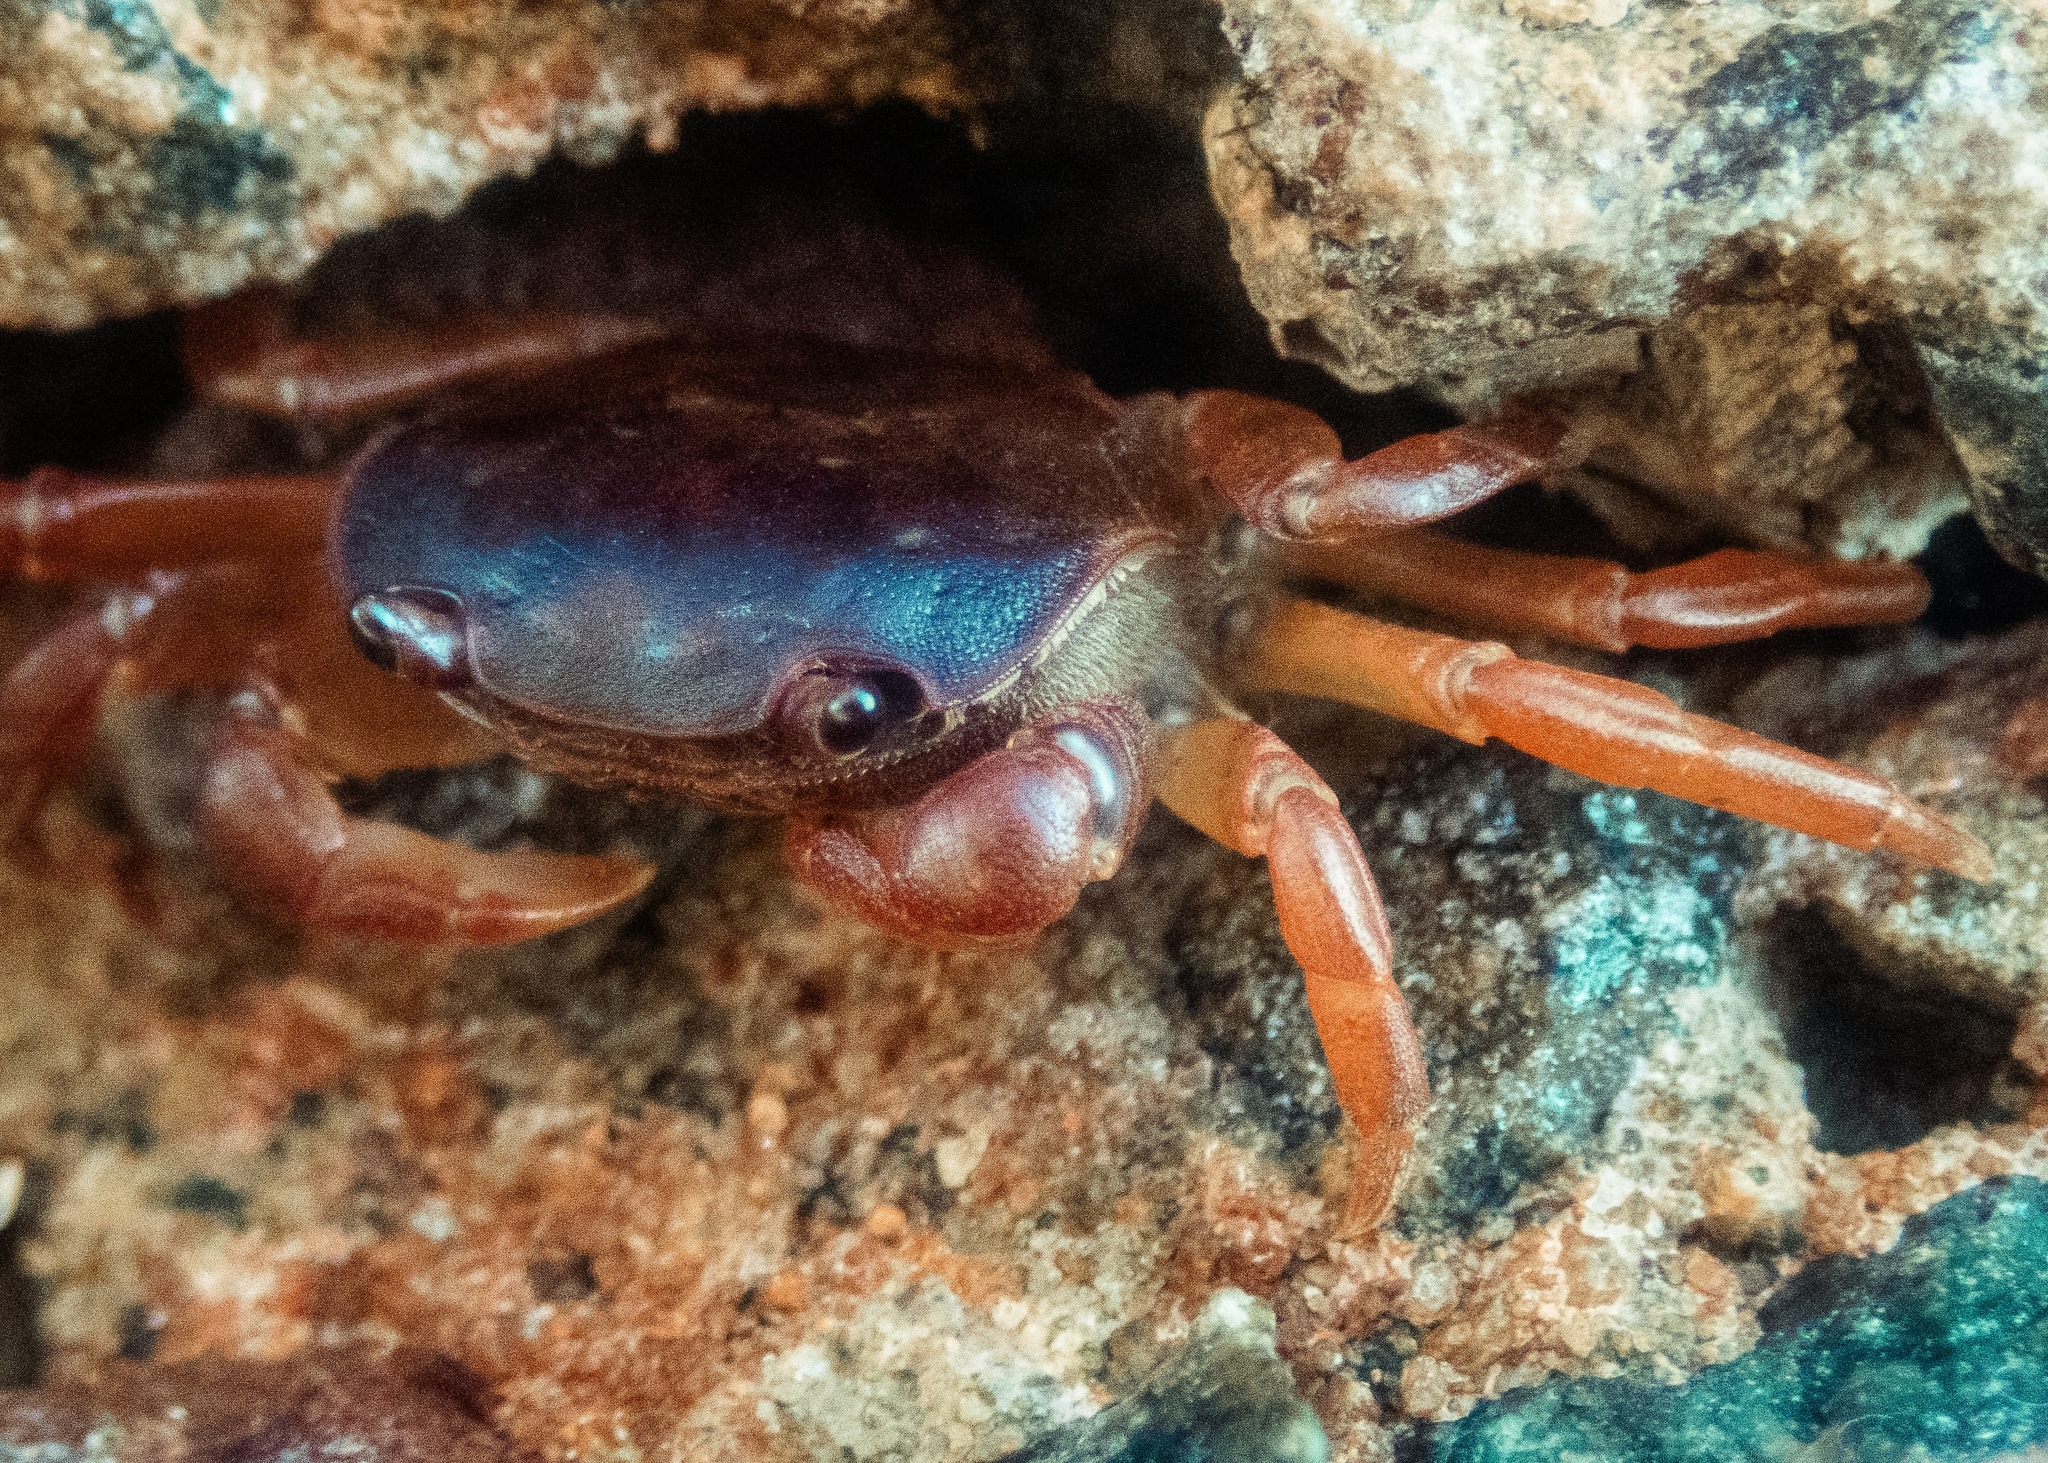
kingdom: Animalia
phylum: Arthropoda
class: Malacostraca
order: Decapoda
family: Varunidae
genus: Cyclograpsus
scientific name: Cyclograpsus audouinii
